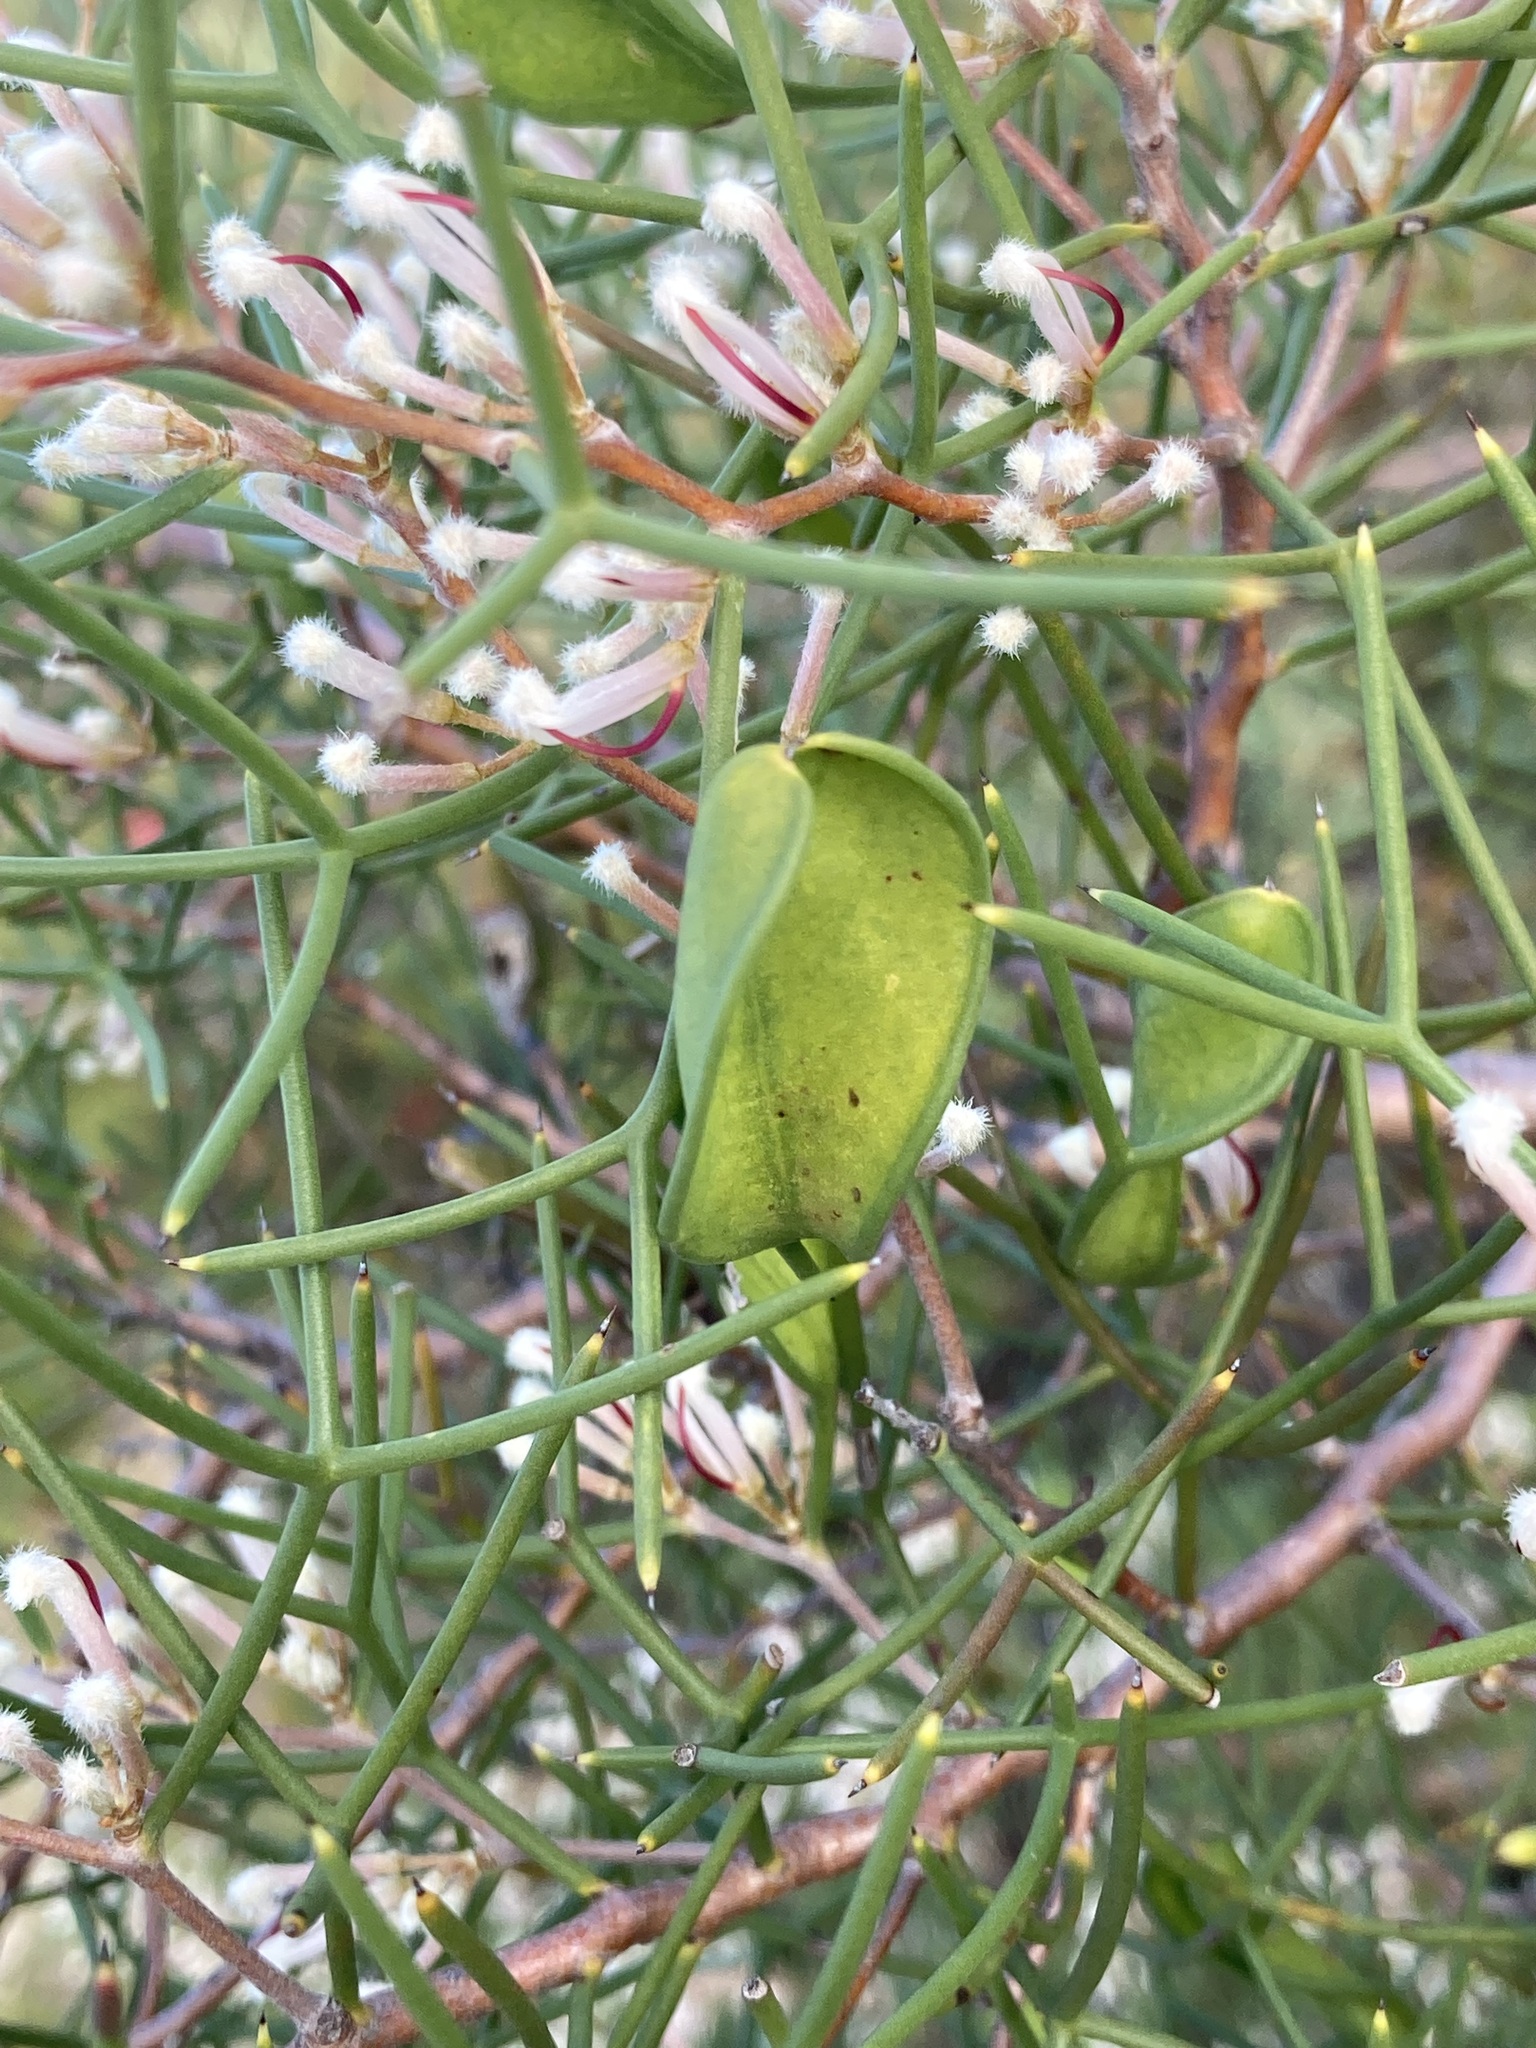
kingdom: Plantae
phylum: Tracheophyta
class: Magnoliopsida
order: Proteales
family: Proteaceae
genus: Hakea
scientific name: Hakea trifurcata
